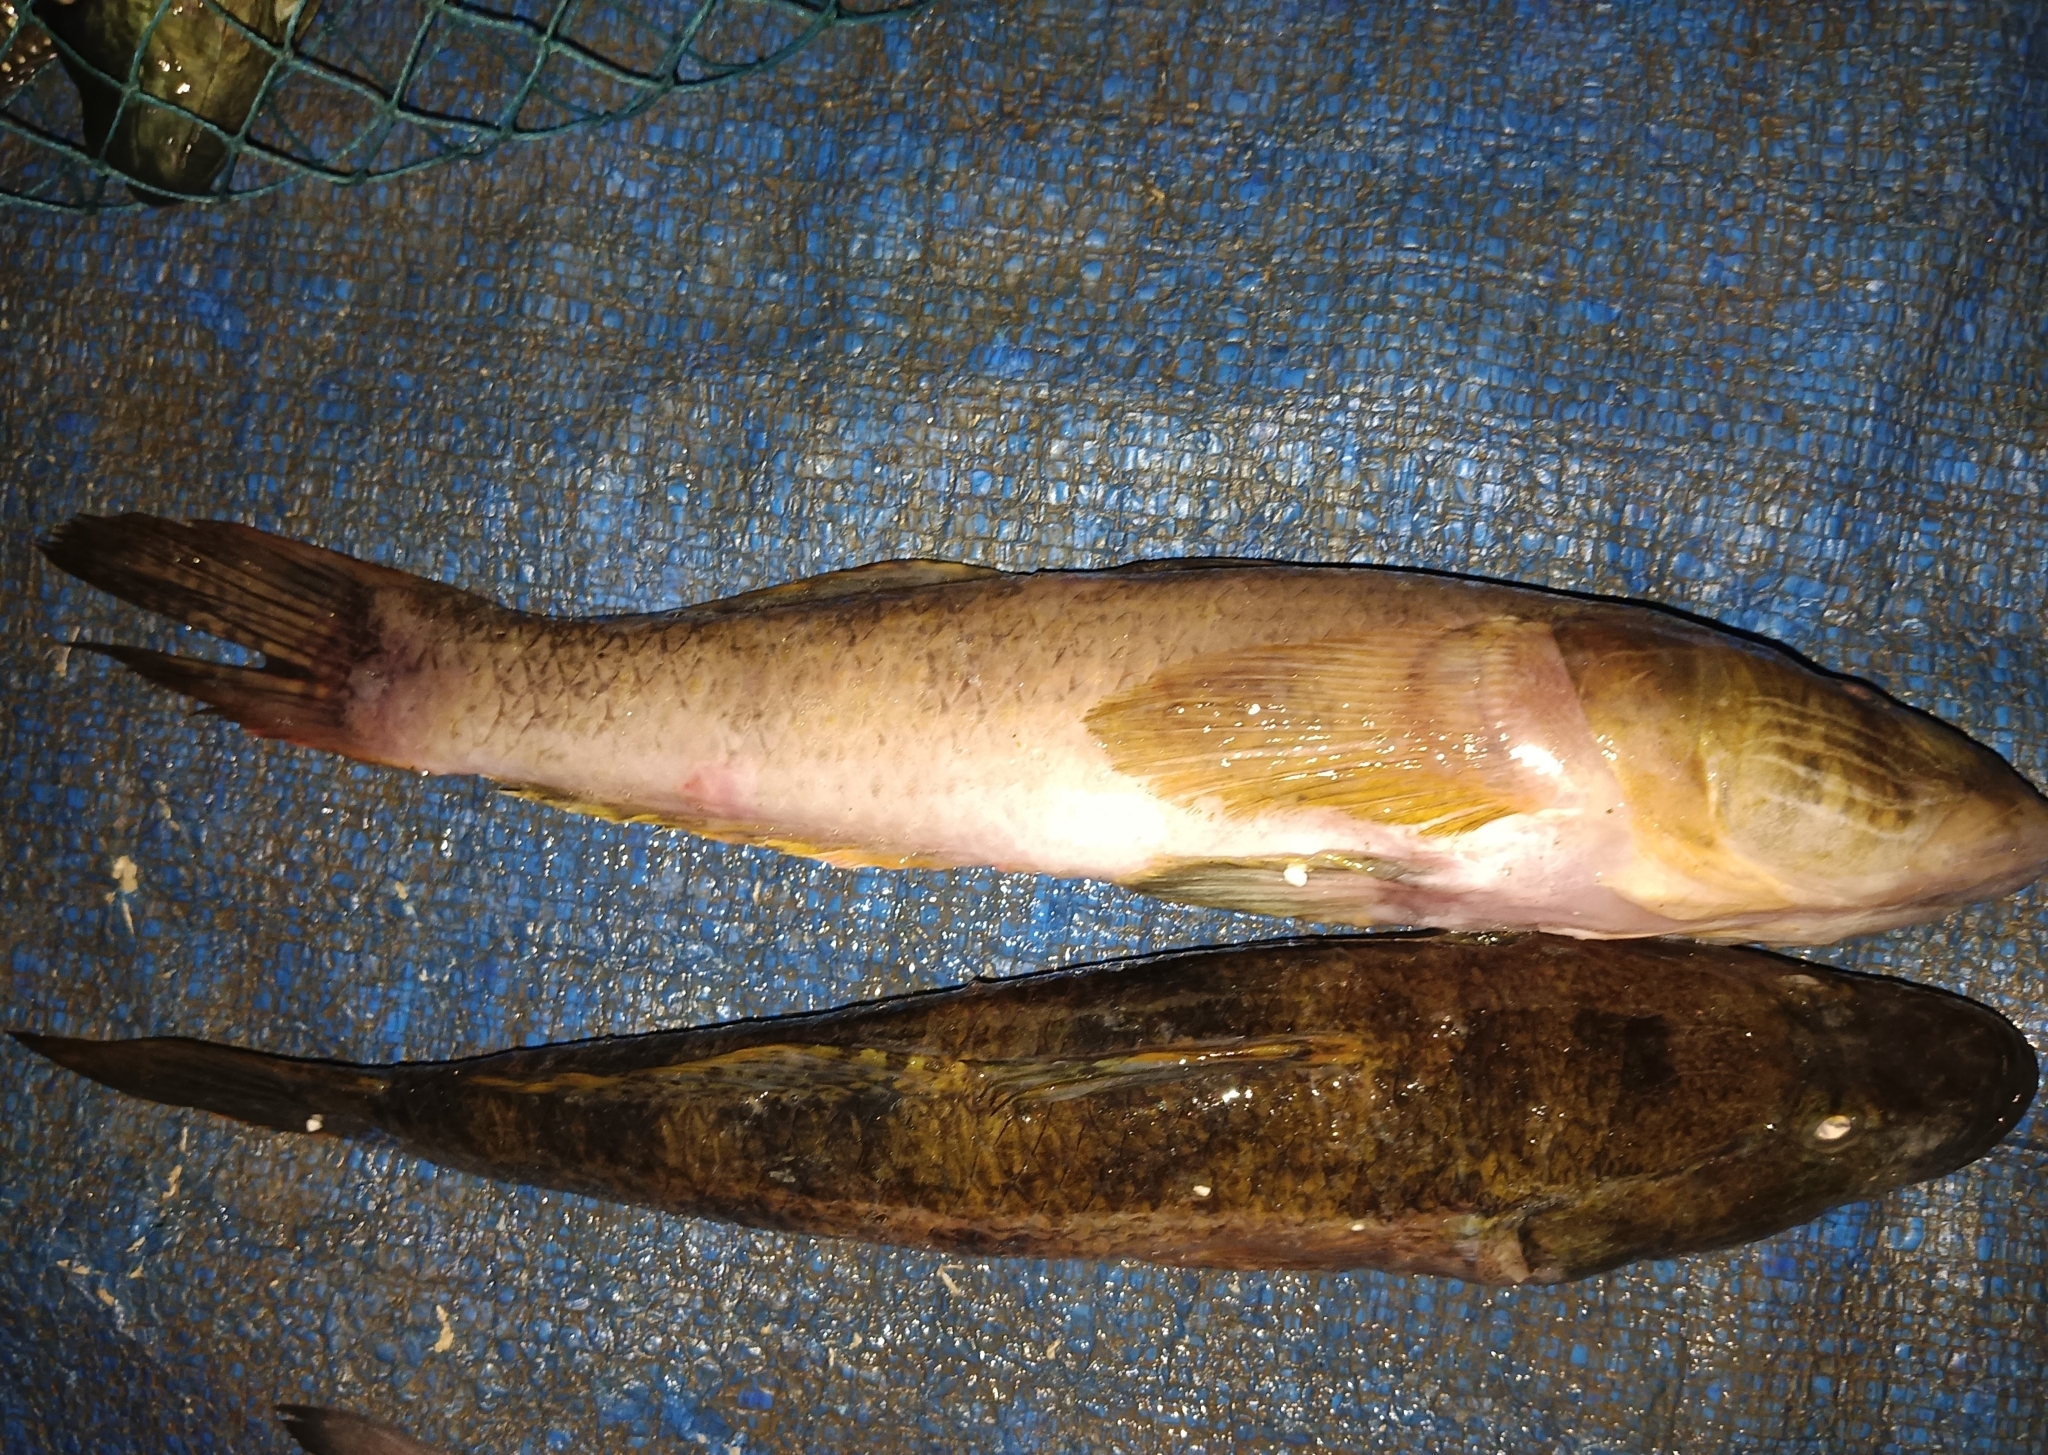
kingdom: Animalia
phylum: Chordata
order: Perciformes
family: Gobiidae
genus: Glossogobius
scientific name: Glossogobius giuris
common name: Tank goby
